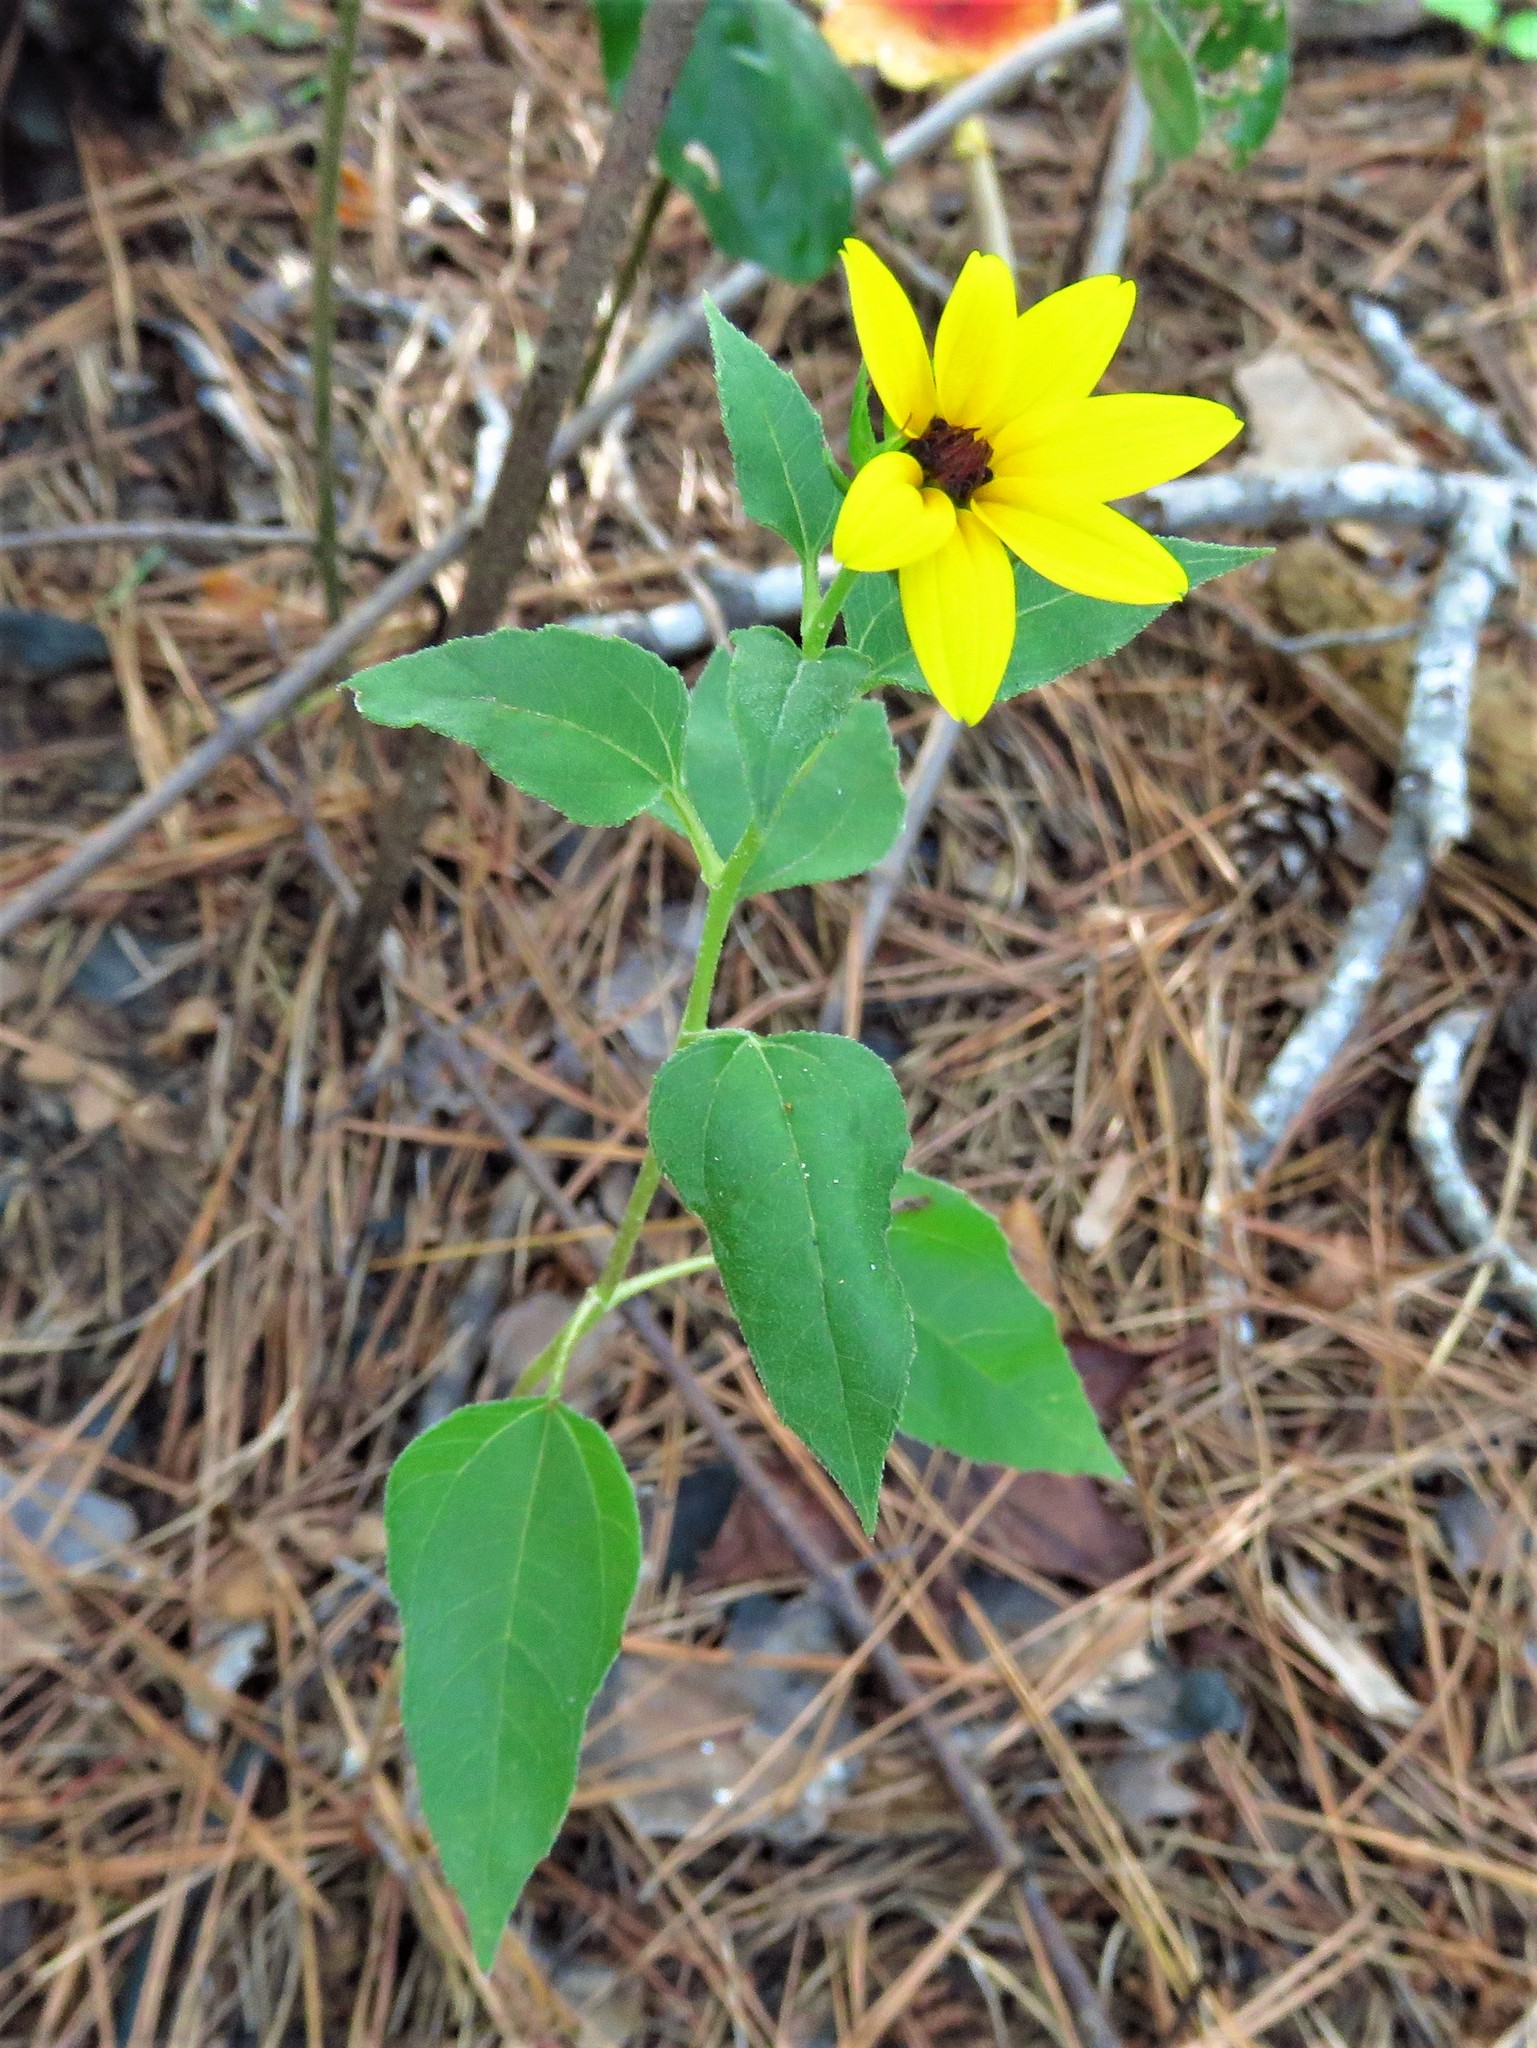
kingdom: Plantae
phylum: Tracheophyta
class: Magnoliopsida
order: Asterales
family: Asteraceae
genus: Helianthus
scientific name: Helianthus debilis
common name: Weak sunflower
